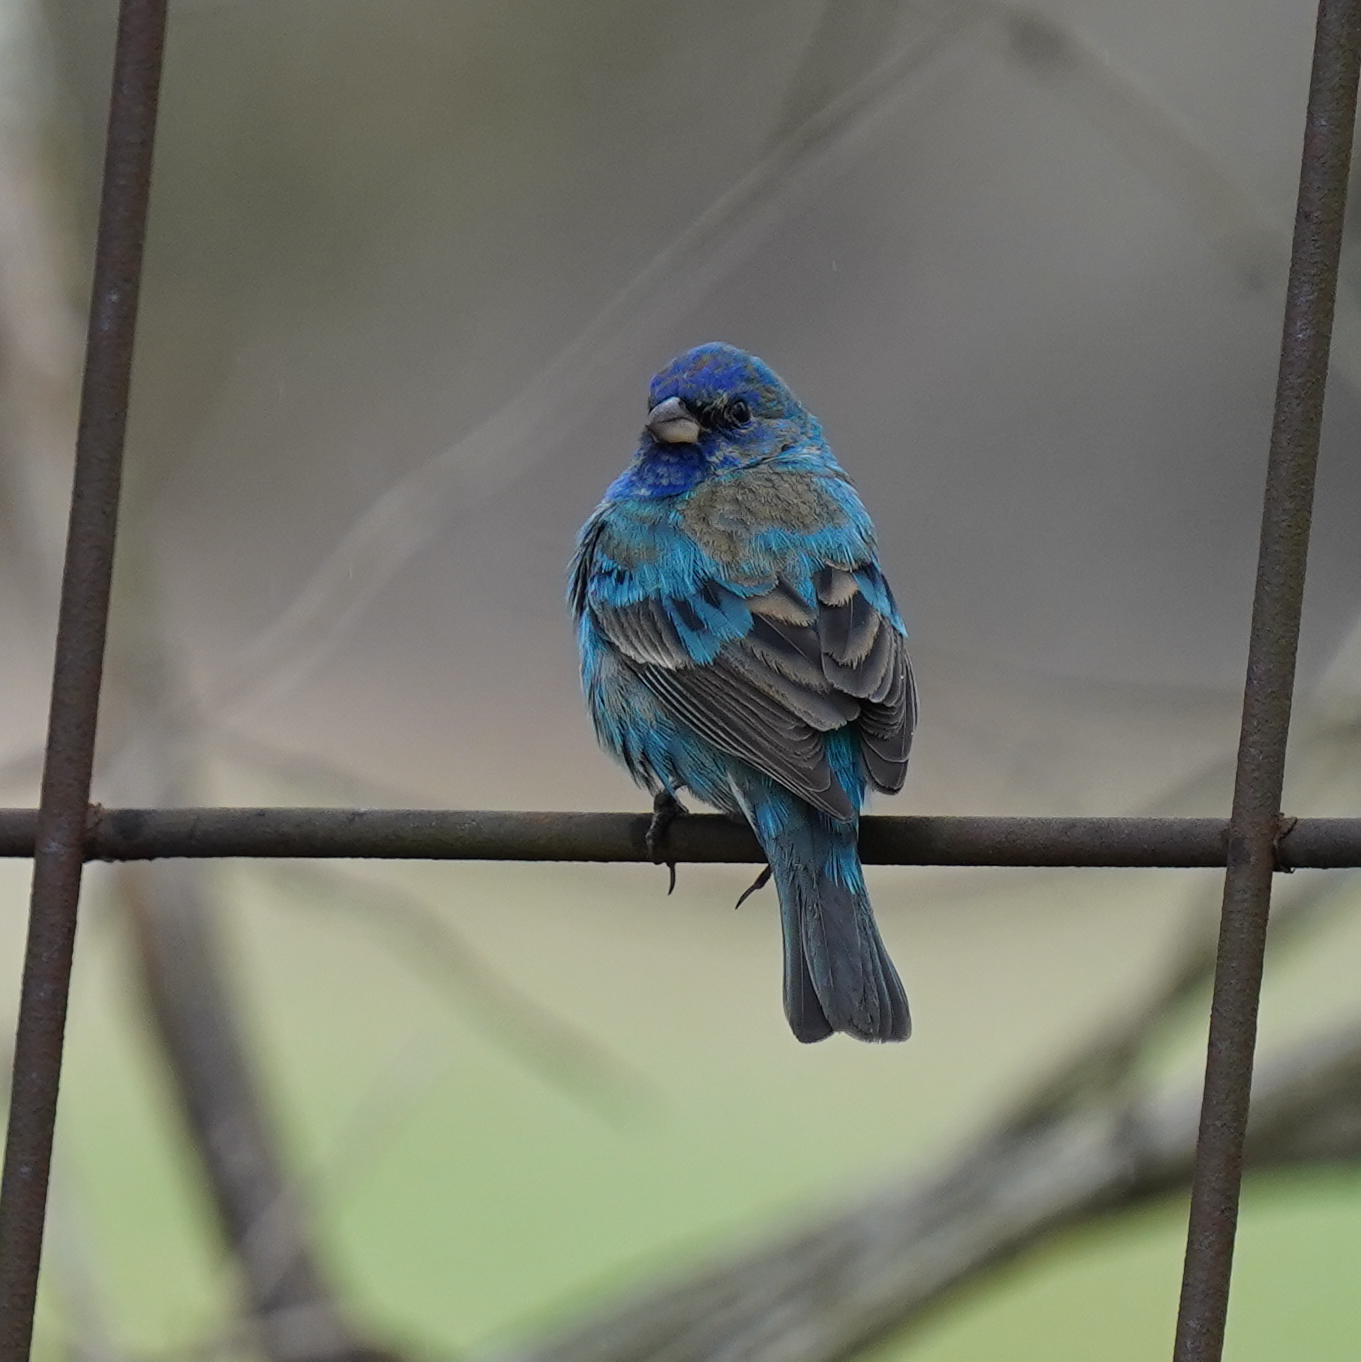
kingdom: Animalia
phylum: Chordata
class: Aves
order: Passeriformes
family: Cardinalidae
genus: Passerina
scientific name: Passerina cyanea
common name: Indigo bunting
